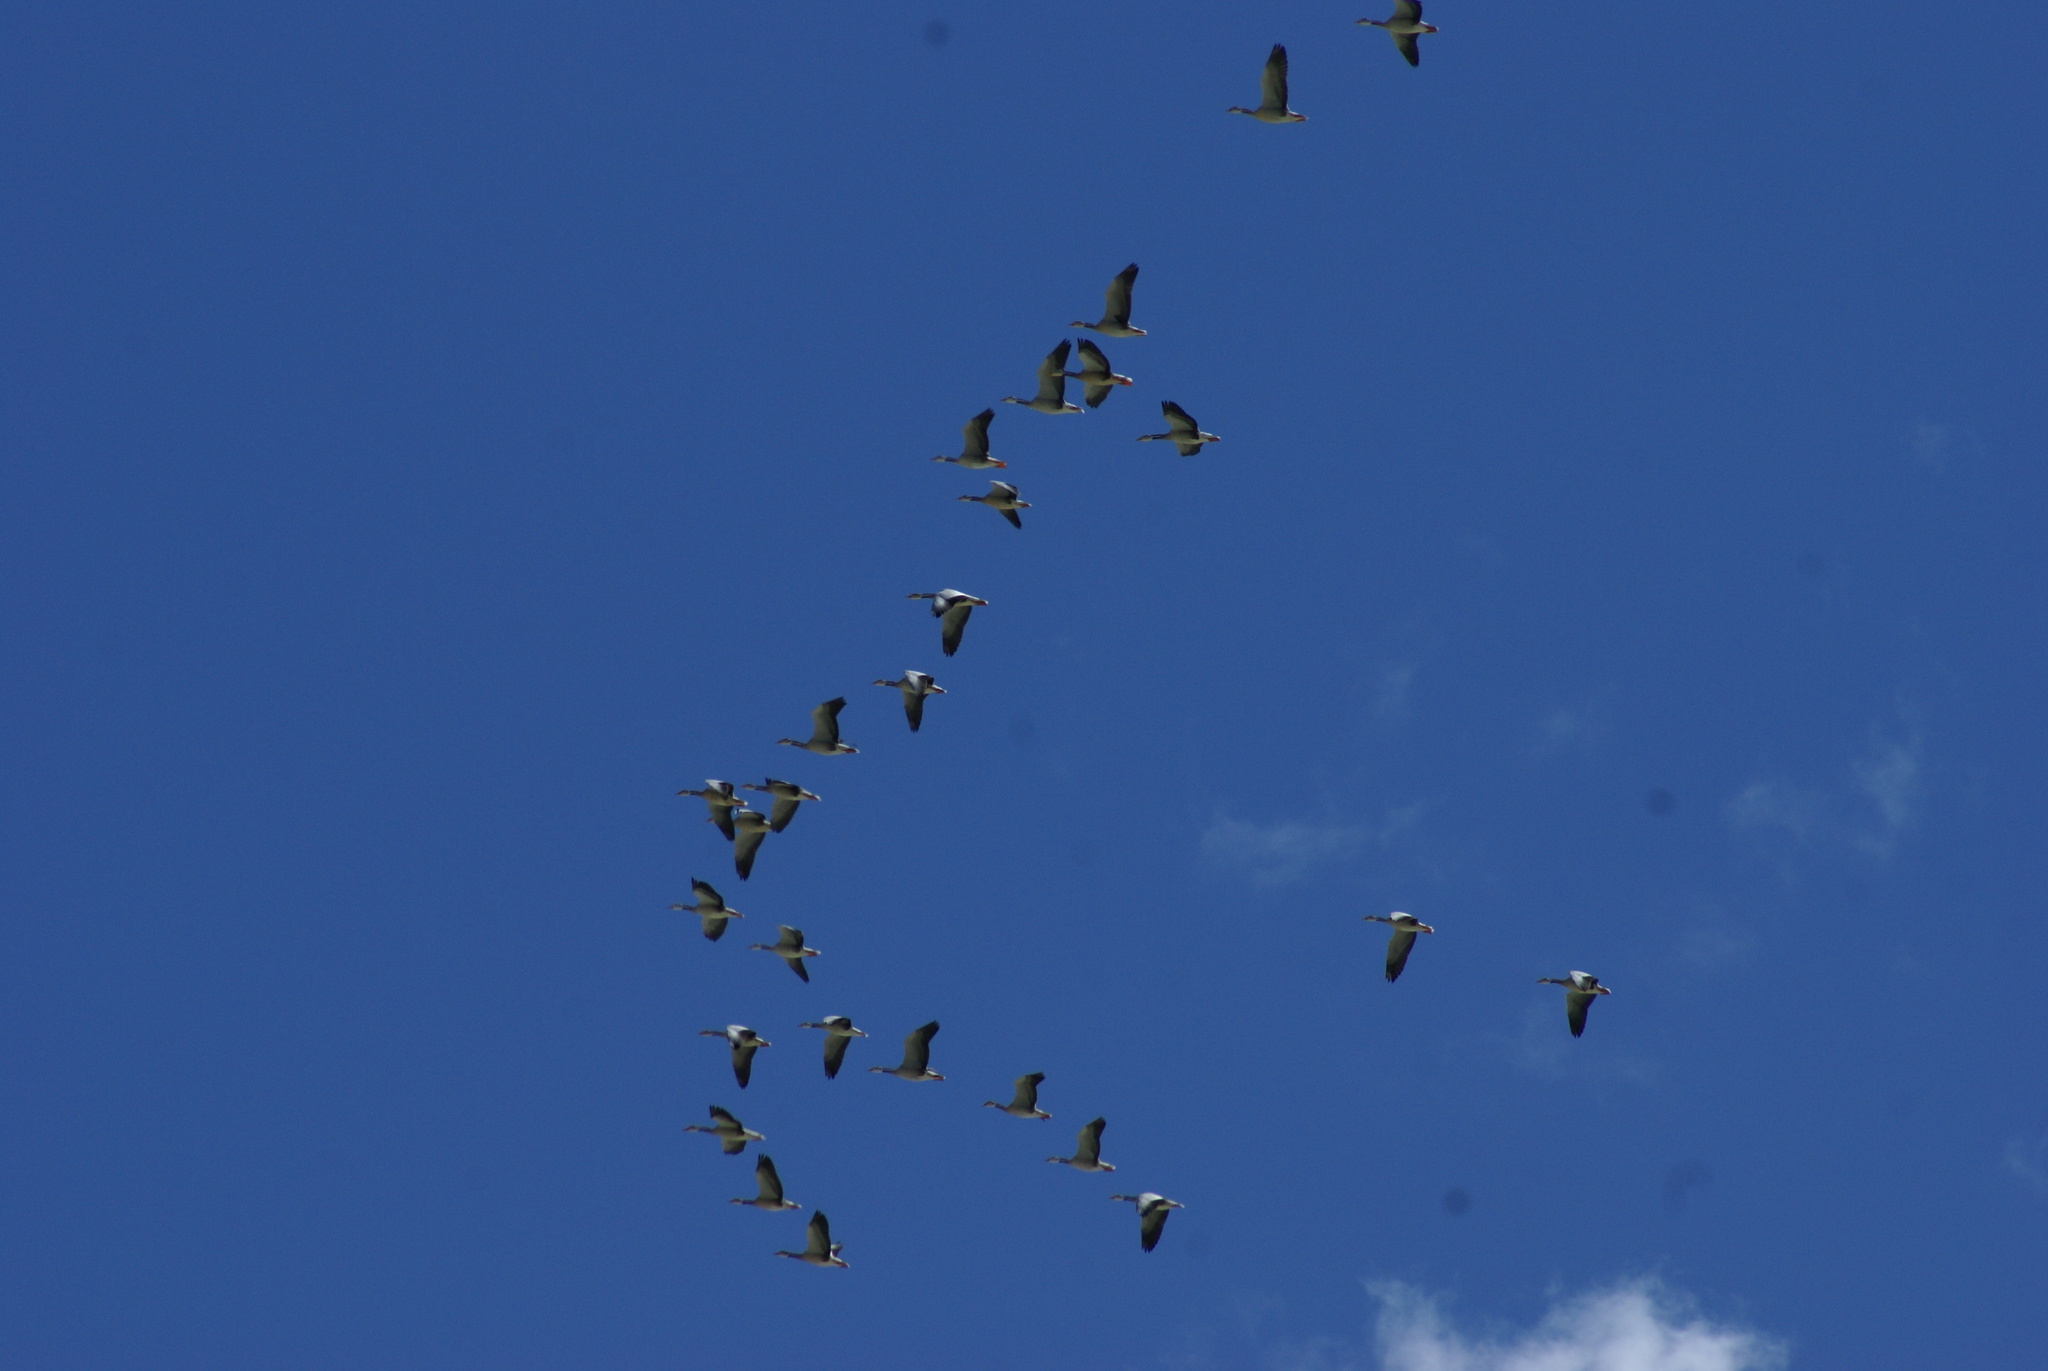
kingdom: Animalia
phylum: Chordata
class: Aves
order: Anseriformes
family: Anatidae
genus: Anser
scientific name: Anser indicus
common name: Bar-headed goose
